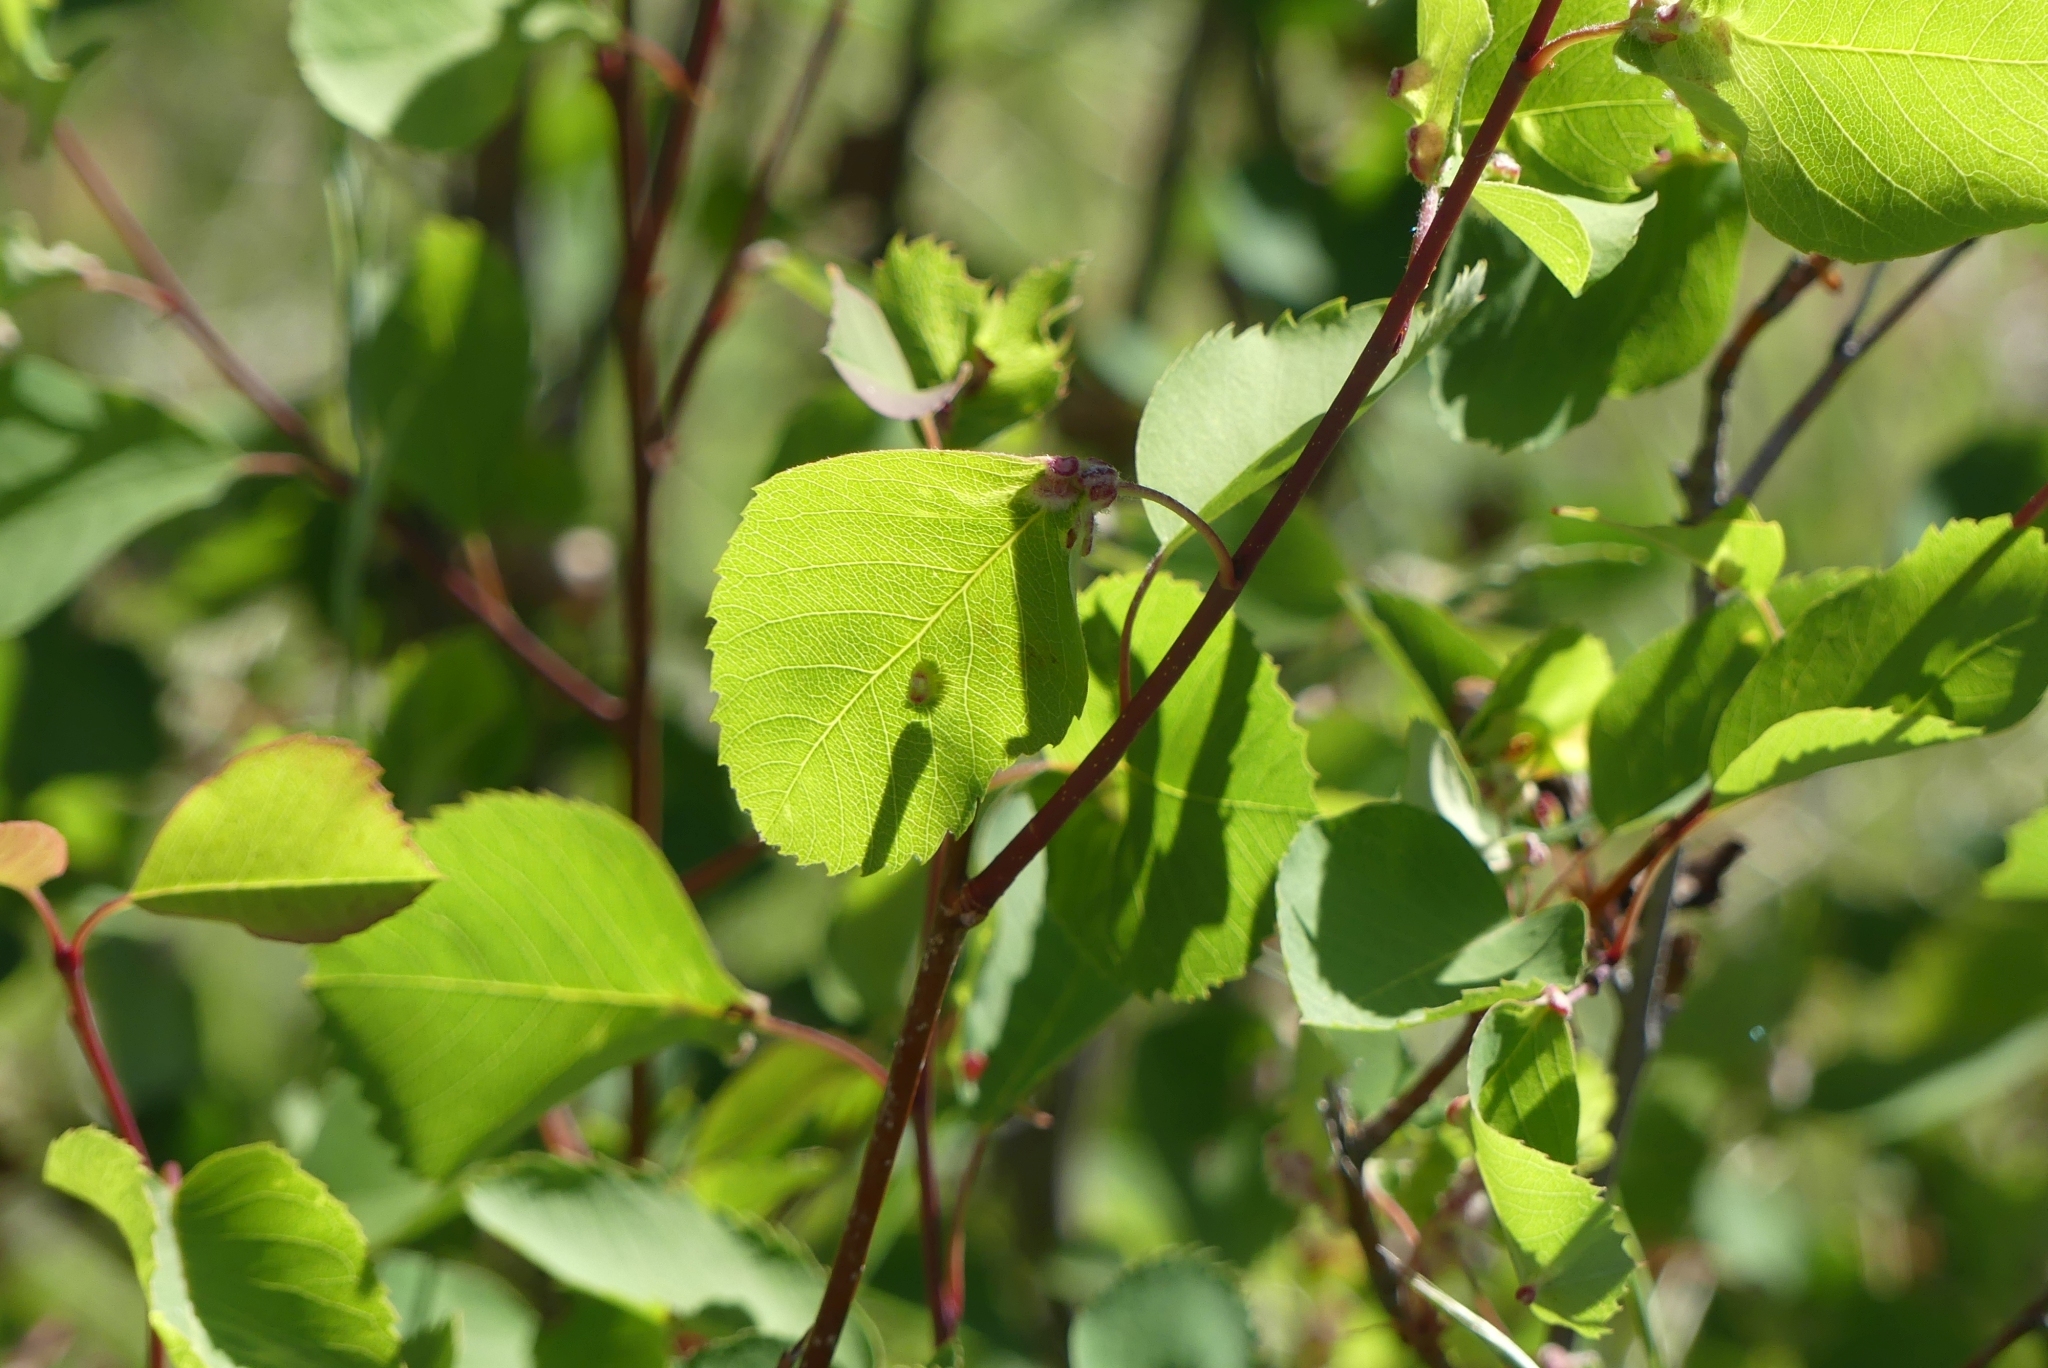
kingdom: Plantae
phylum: Tracheophyta
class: Magnoliopsida
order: Rosales
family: Rosaceae
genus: Amelanchier
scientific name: Amelanchier alnifolia
